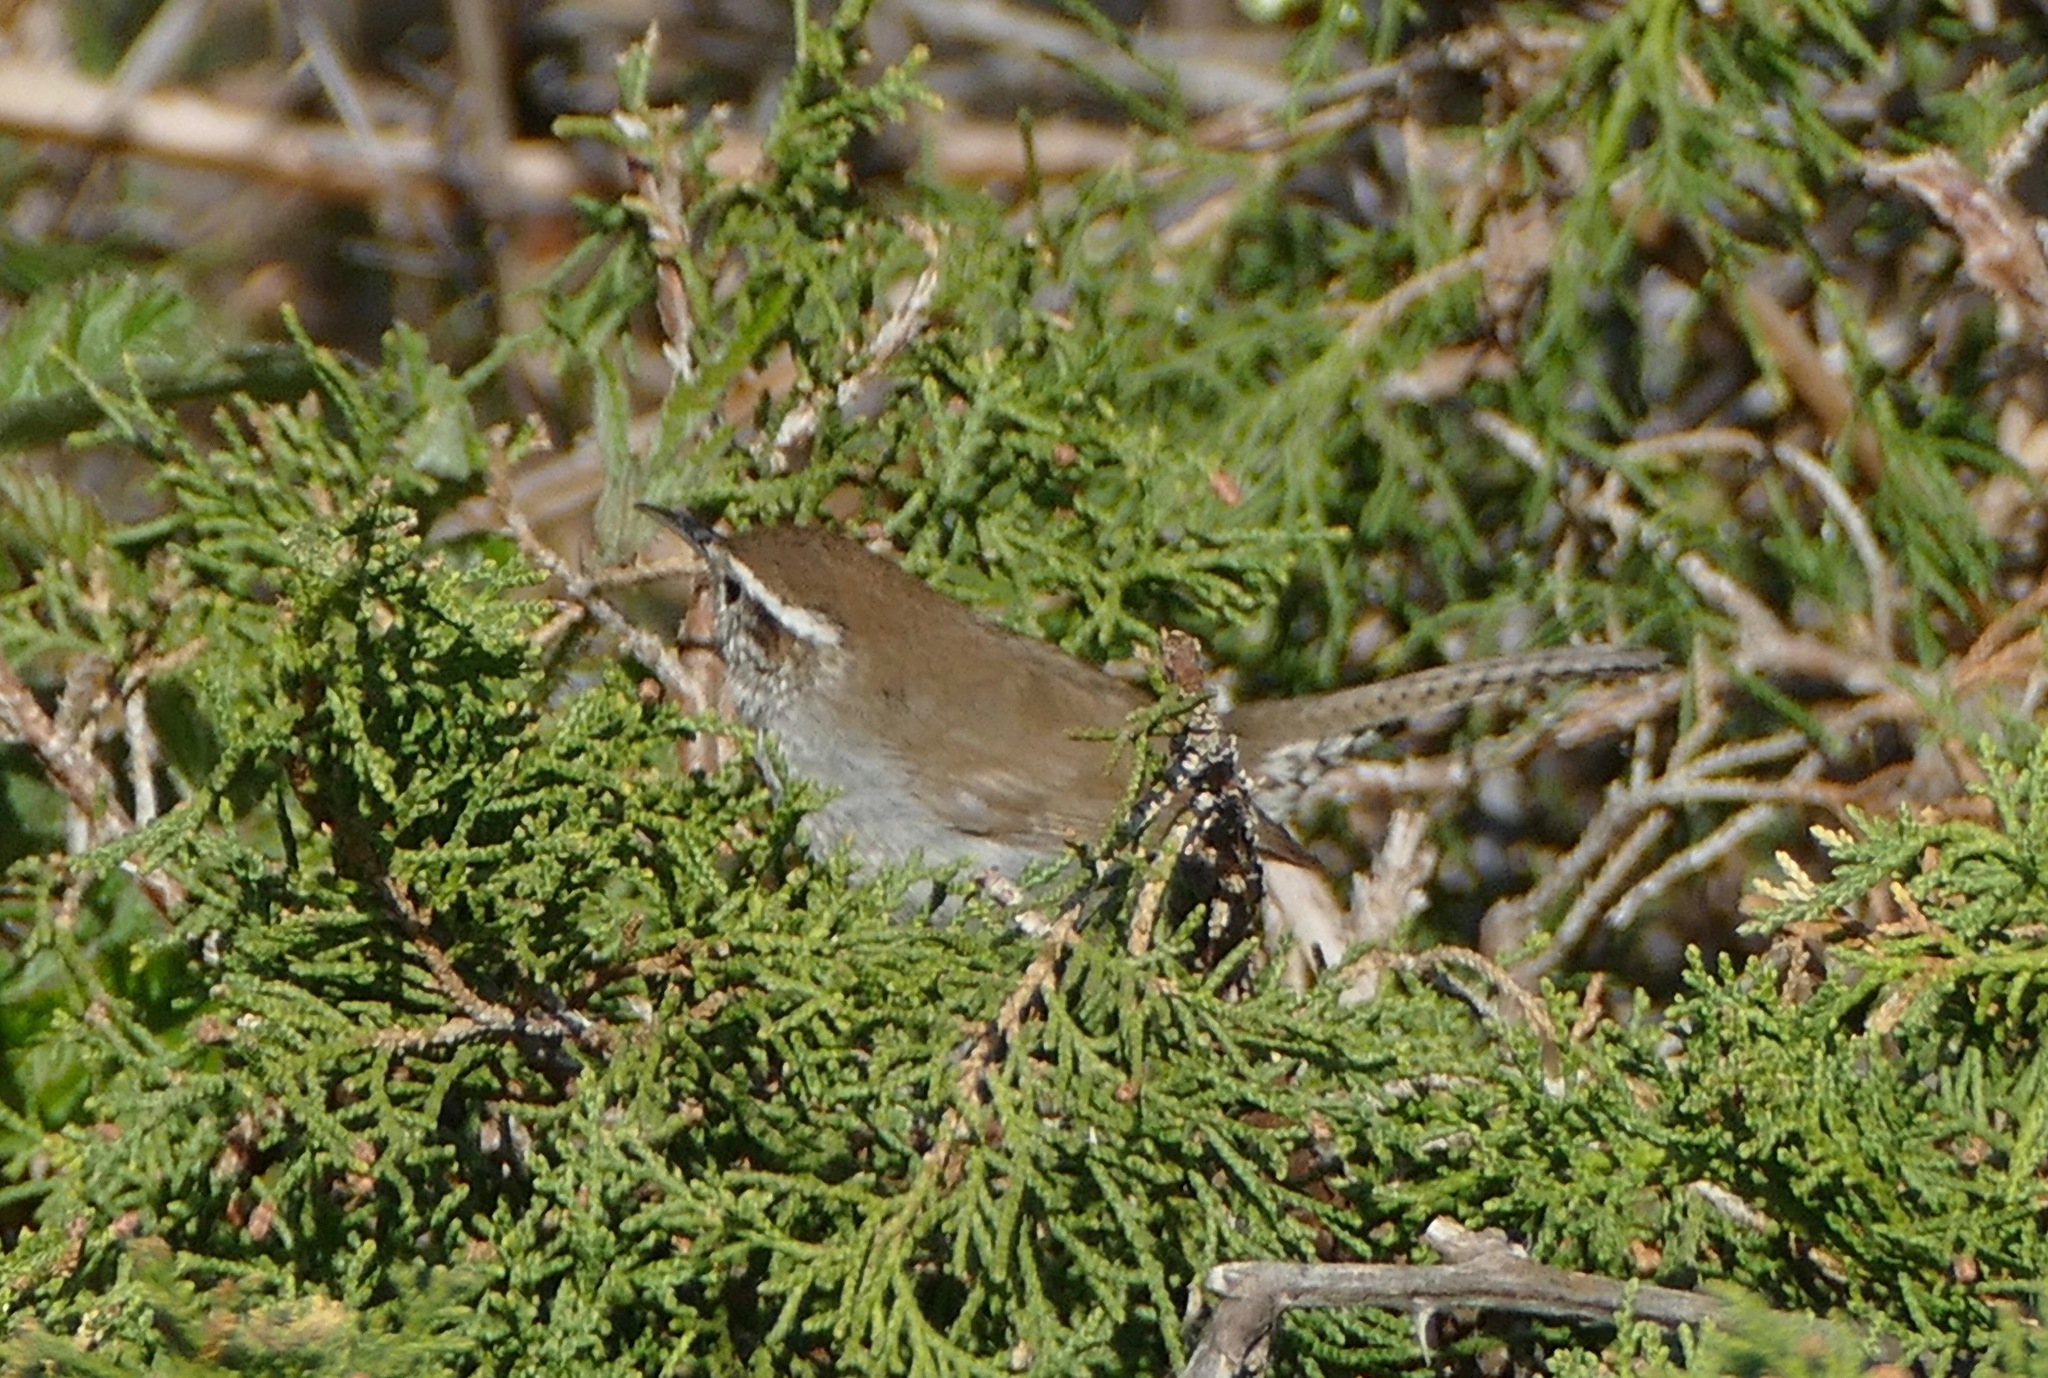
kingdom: Animalia
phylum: Chordata
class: Aves
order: Passeriformes
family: Troglodytidae
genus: Thryomanes
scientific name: Thryomanes bewickii
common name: Bewick's wren
